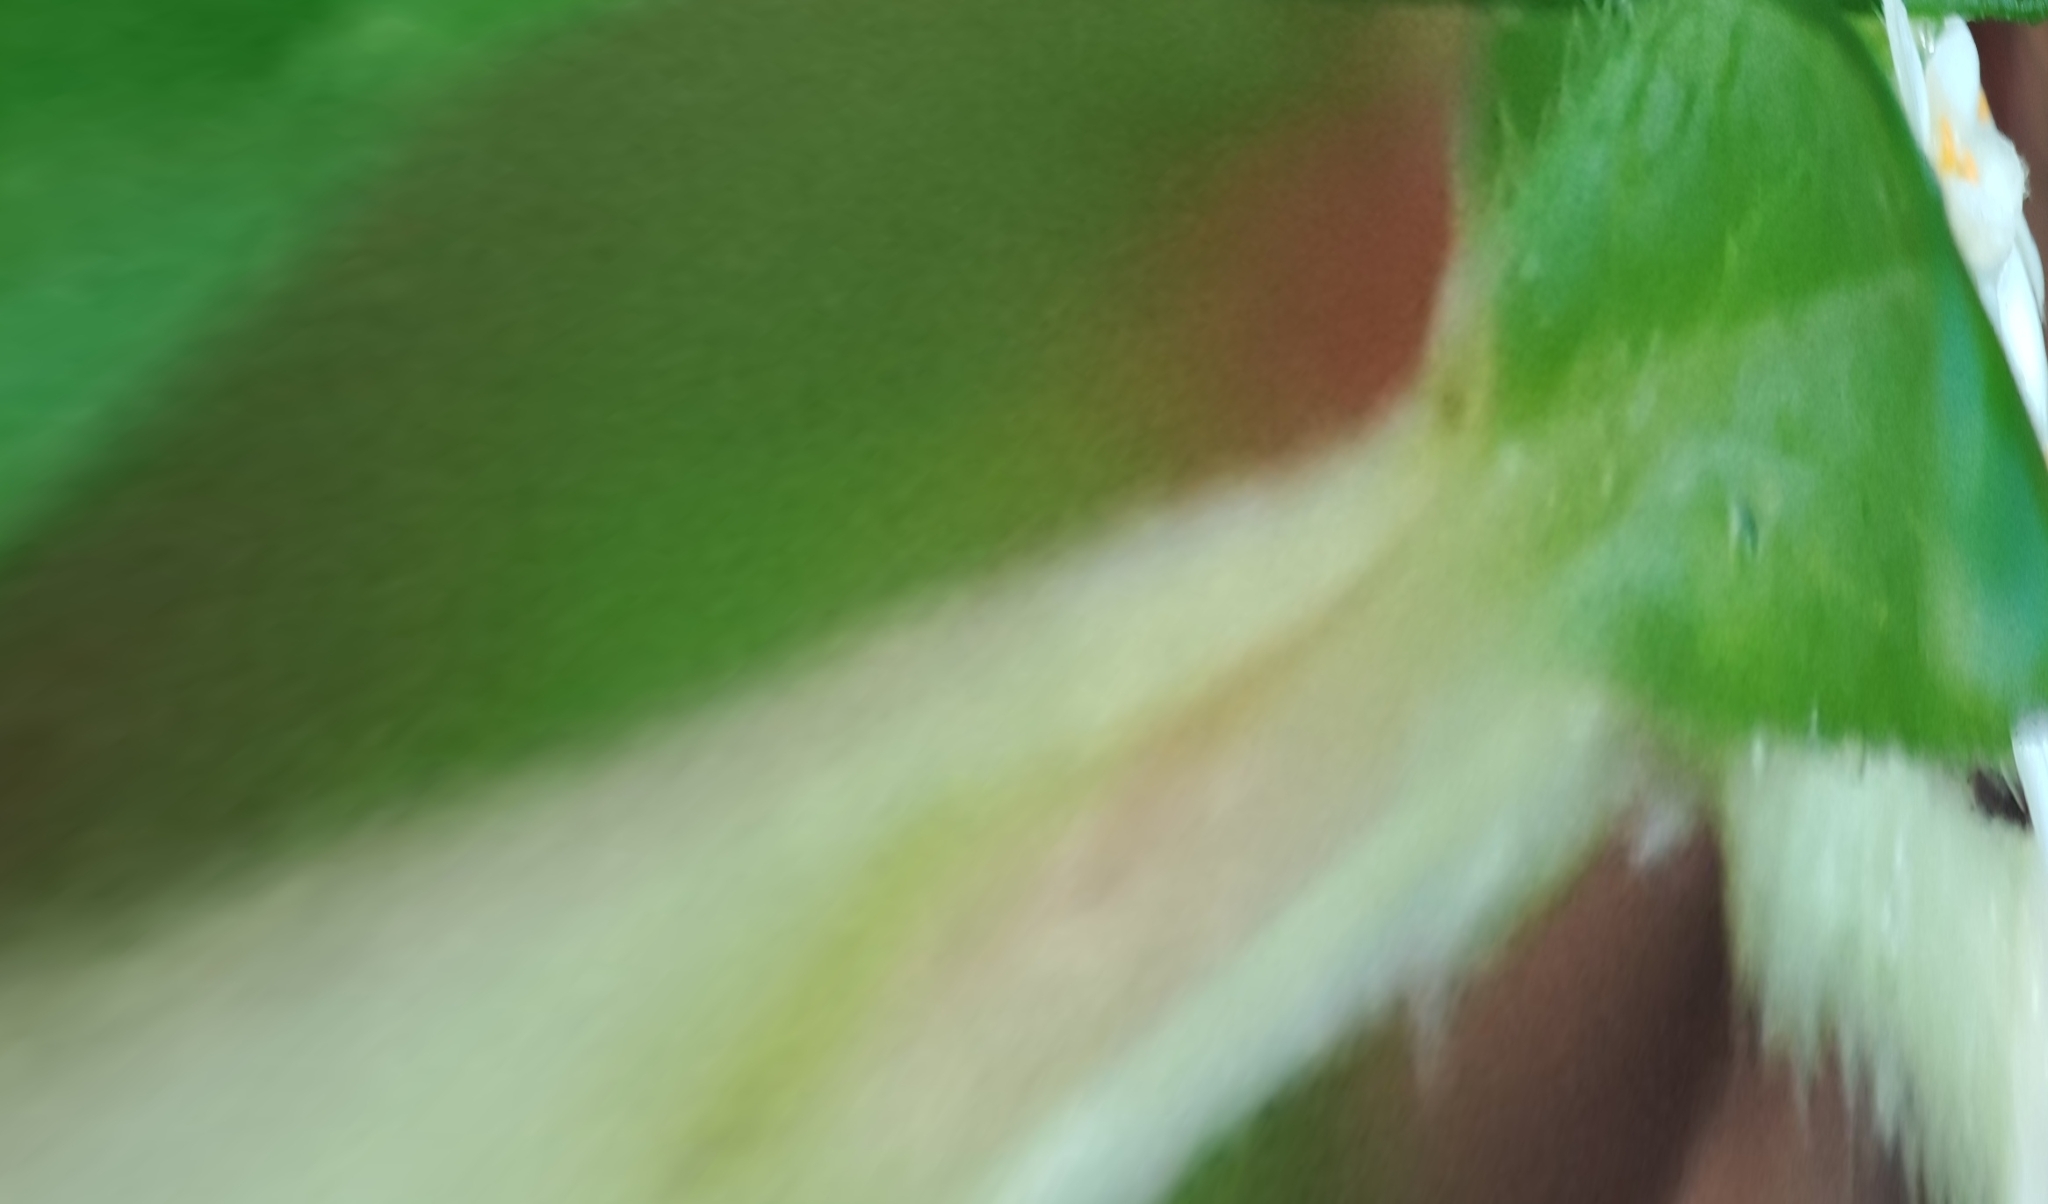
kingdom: Plantae
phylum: Tracheophyta
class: Magnoliopsida
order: Malvales
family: Thymelaeaceae
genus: Pimelea
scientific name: Pimelea drupacea
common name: Cherry riceflower
